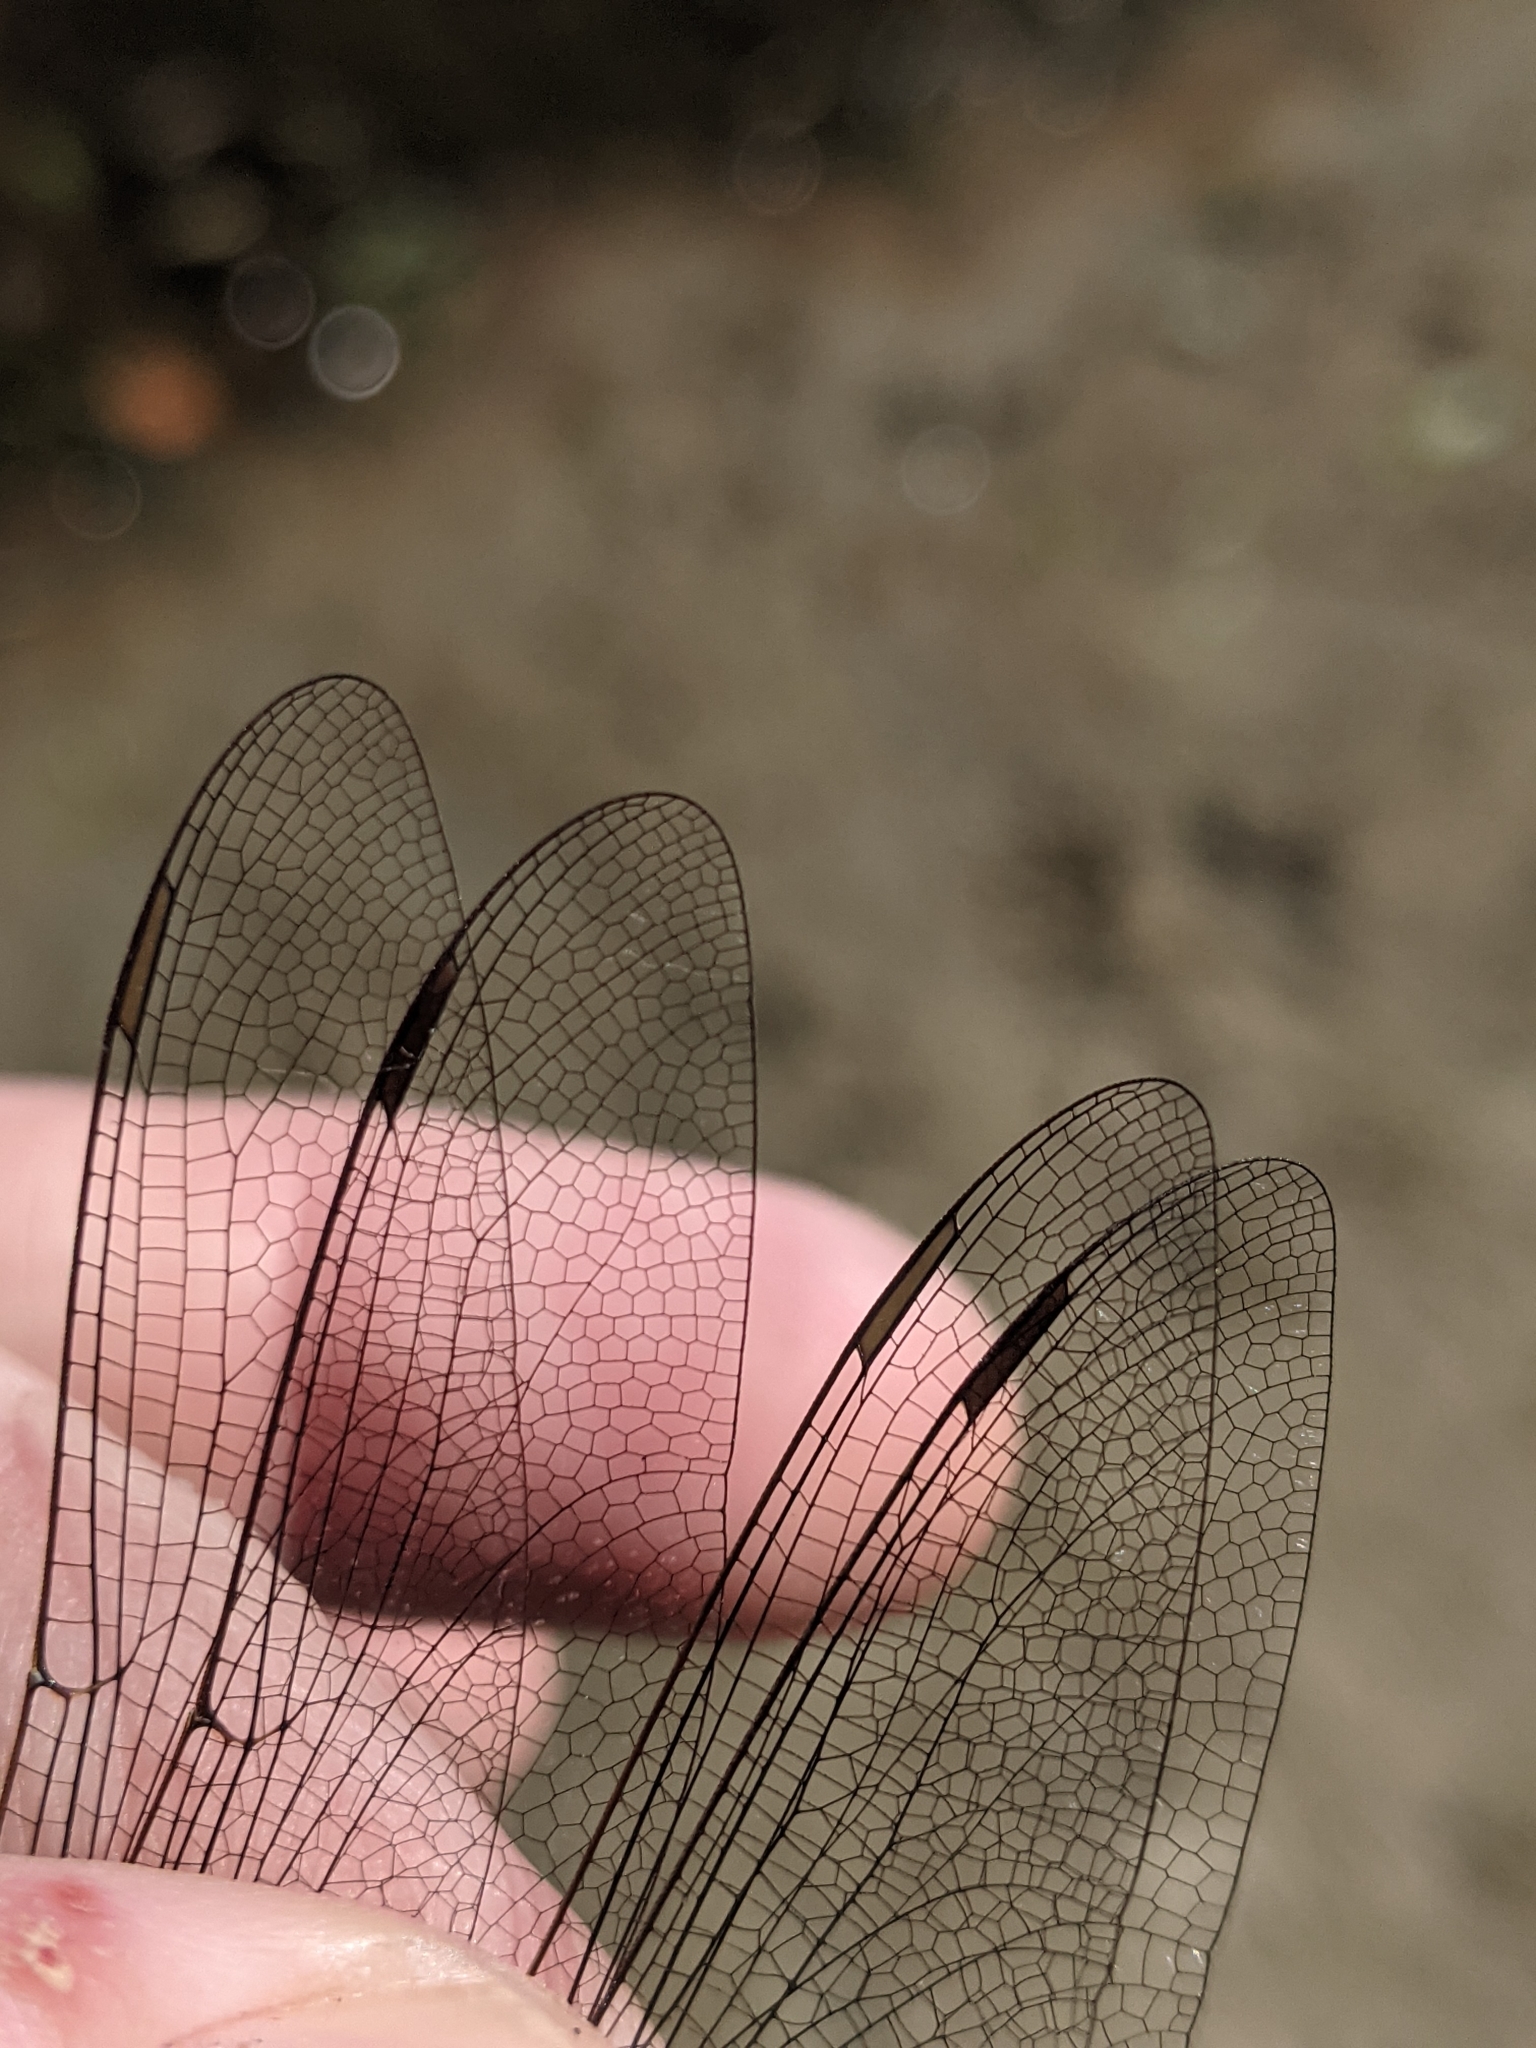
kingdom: Animalia
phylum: Arthropoda
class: Insecta
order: Odonata
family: Aeshnidae
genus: Aeshna
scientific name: Aeshna eremita
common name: Lake darner
